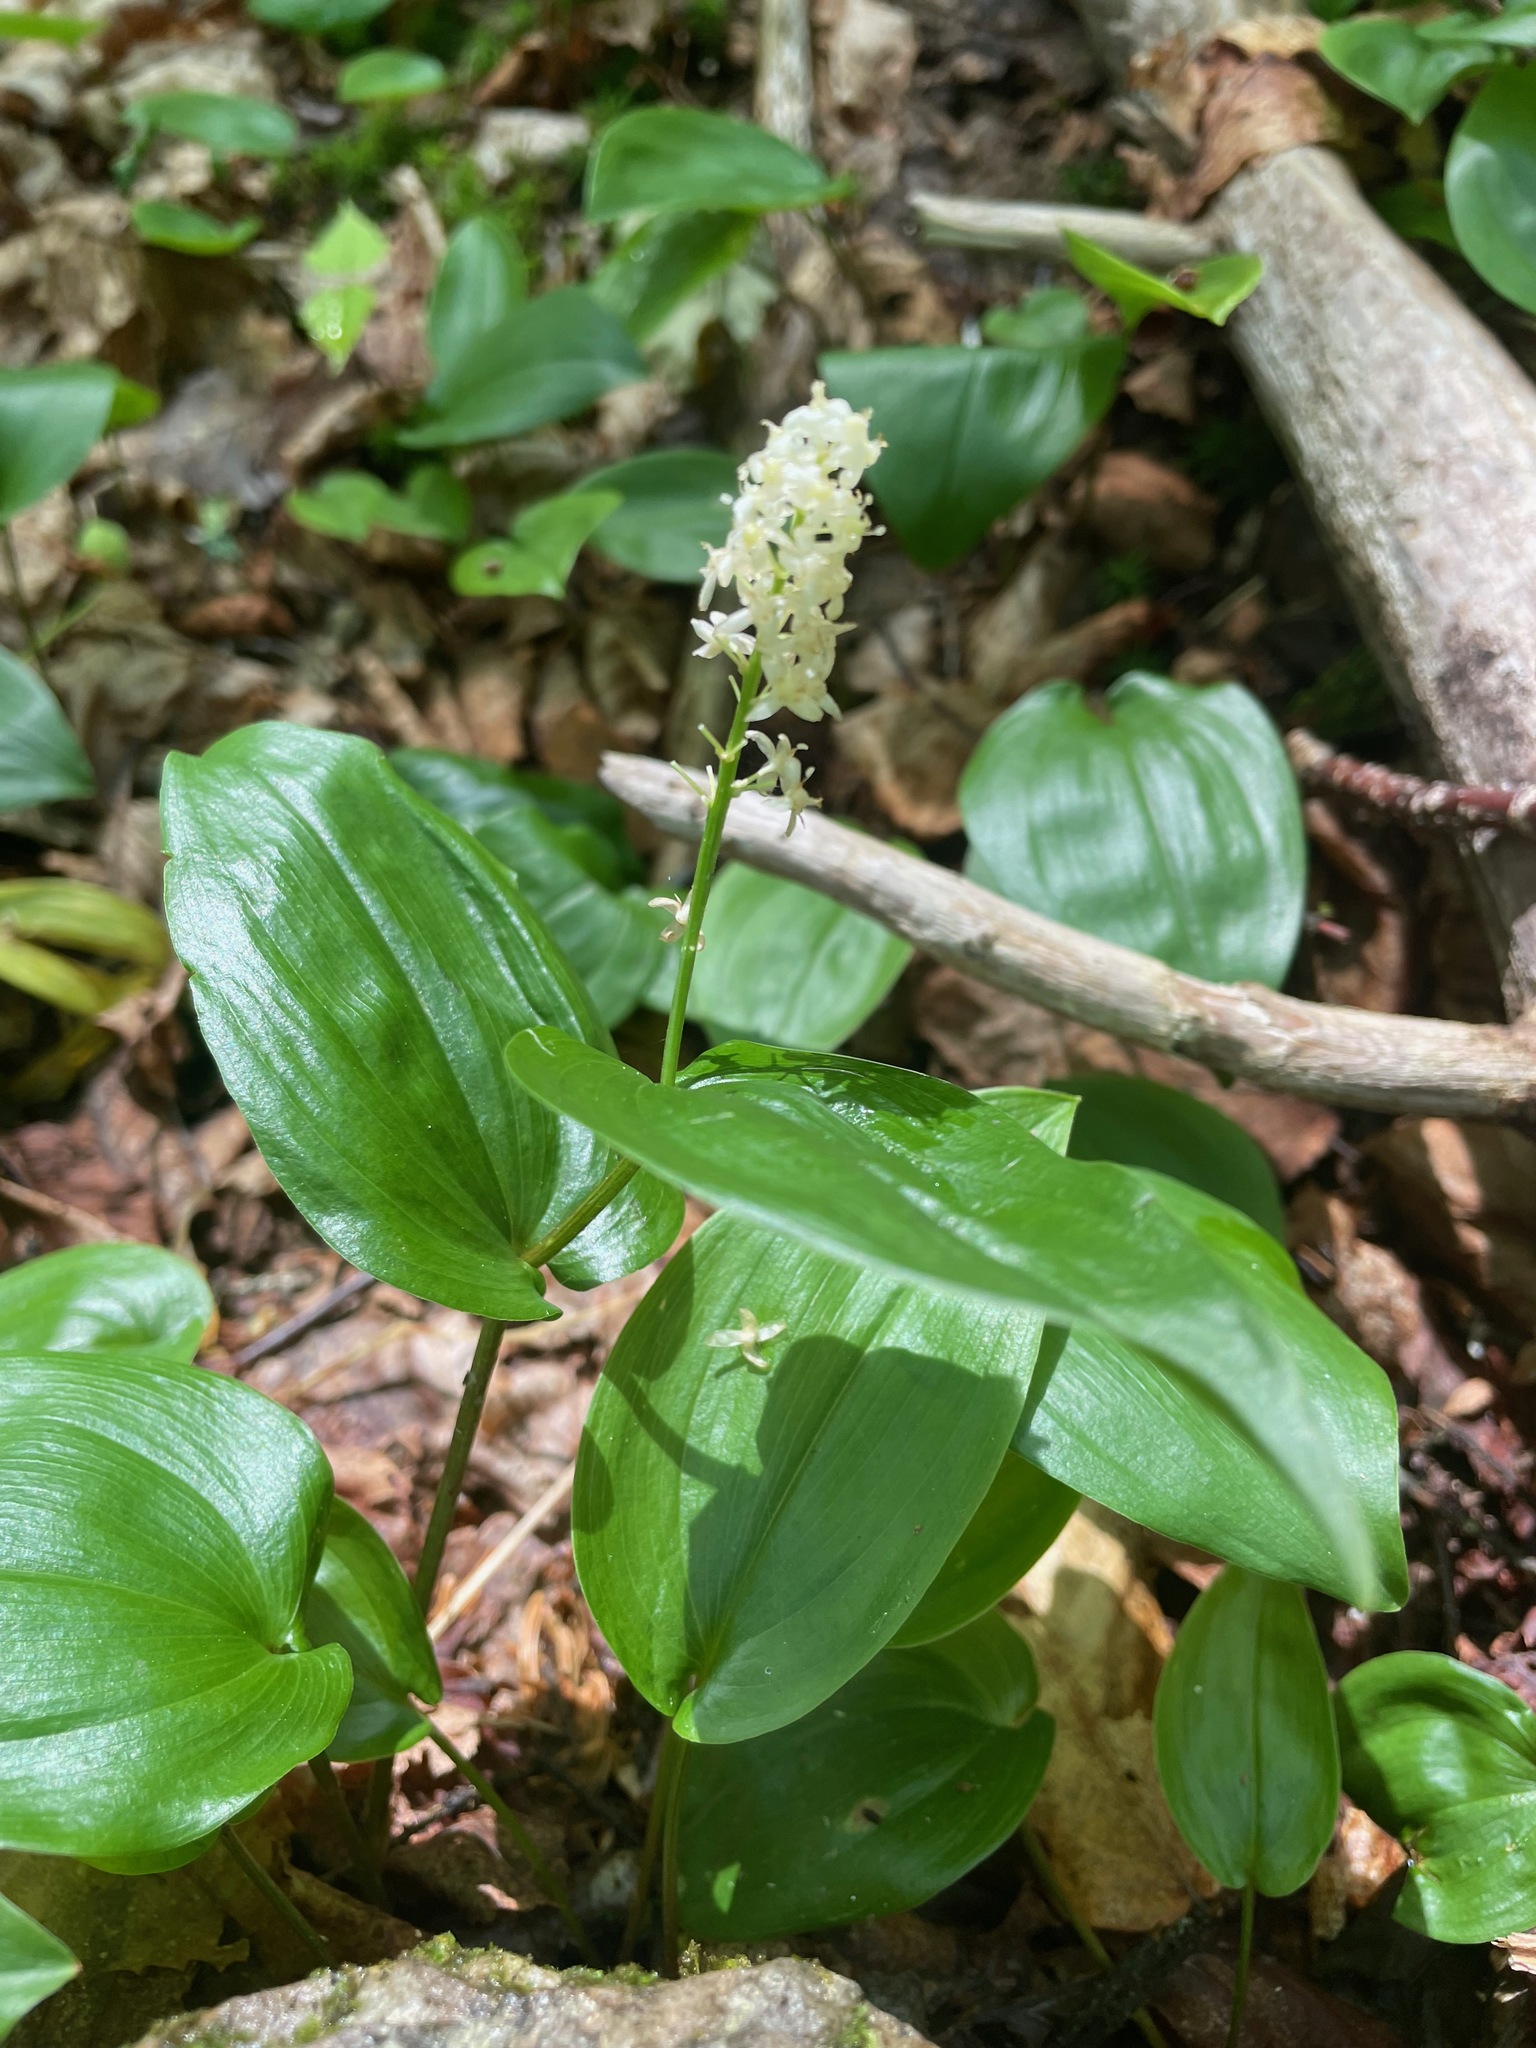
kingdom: Plantae
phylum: Tracheophyta
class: Liliopsida
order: Asparagales
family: Asparagaceae
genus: Maianthemum
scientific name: Maianthemum canadense
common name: False lily-of-the-valley
